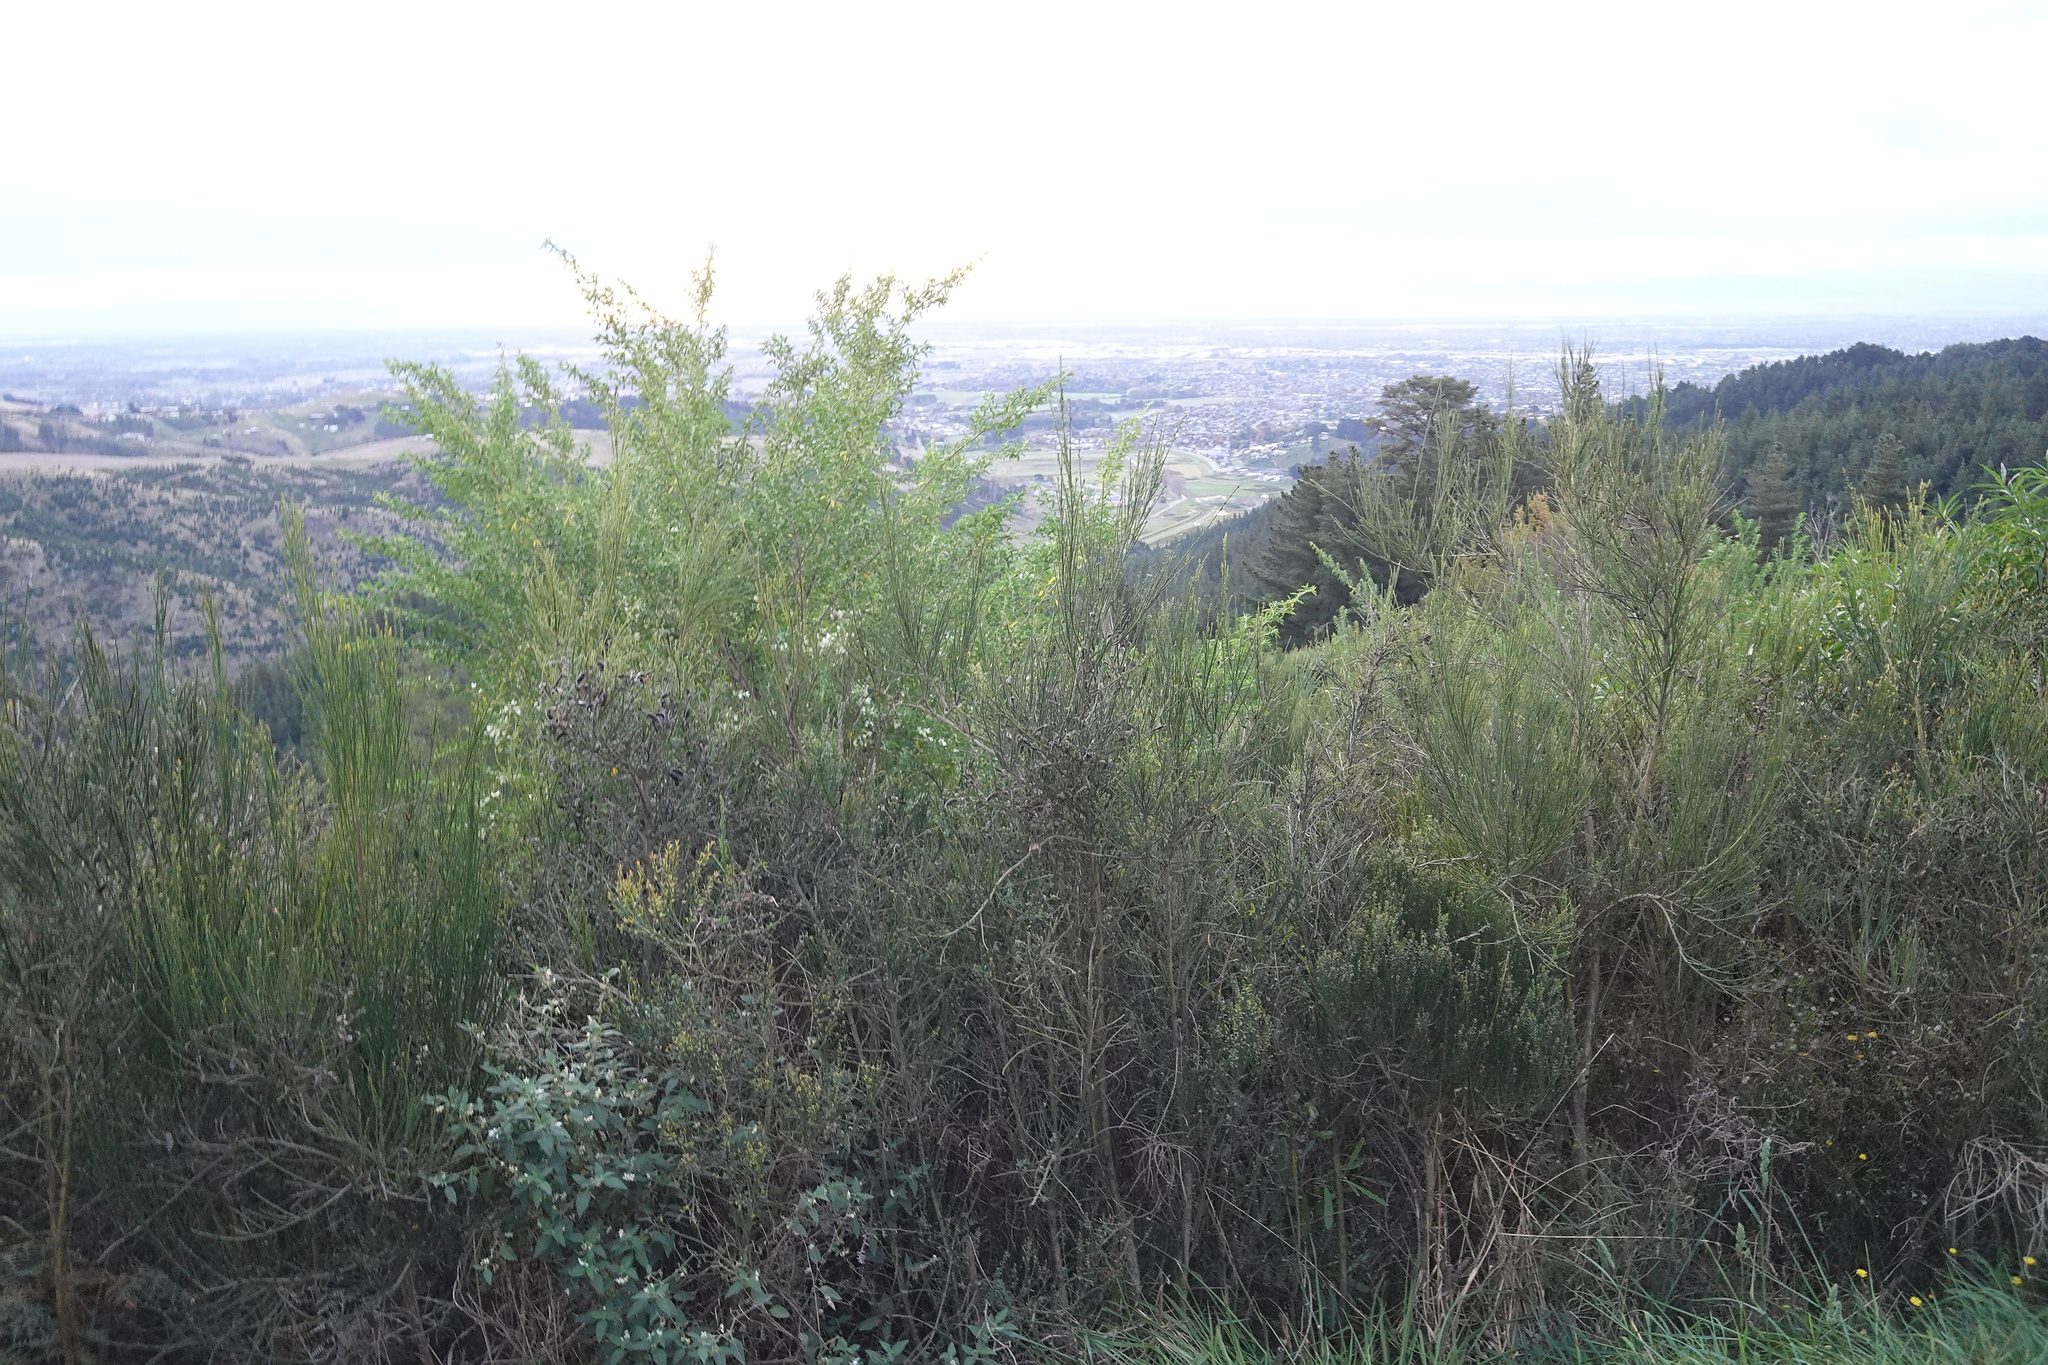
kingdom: Plantae
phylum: Tracheophyta
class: Magnoliopsida
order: Fabales
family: Fabaceae
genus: Chamaecytisus
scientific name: Chamaecytisus prolifer
